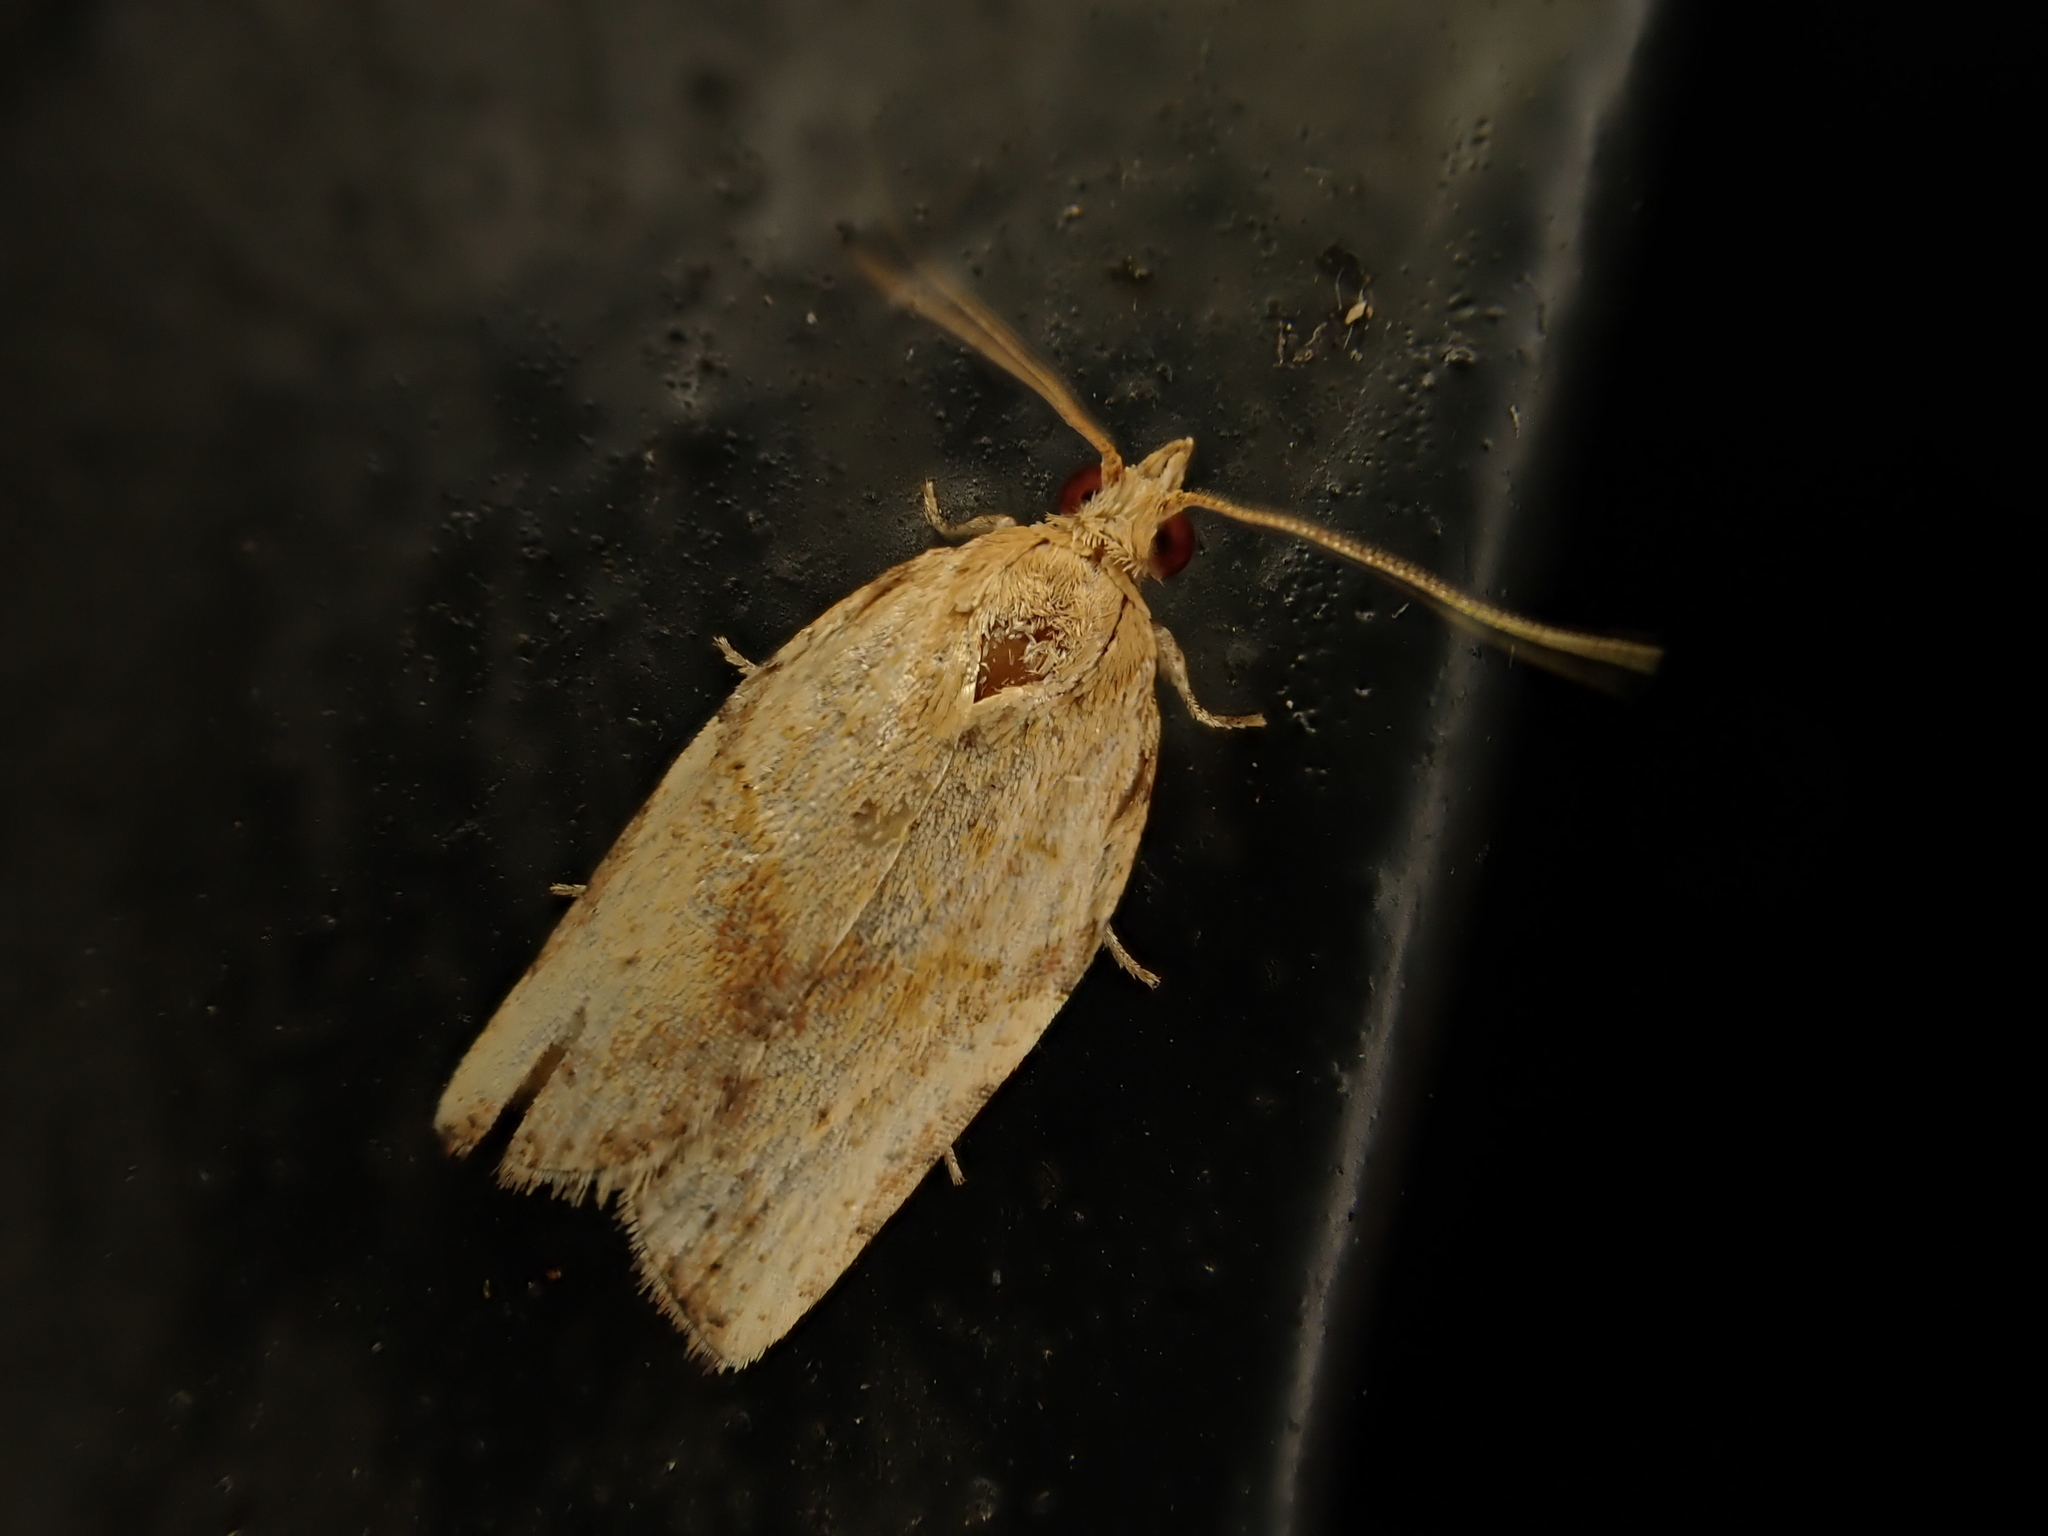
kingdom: Animalia
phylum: Arthropoda
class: Insecta
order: Lepidoptera
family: Tortricidae
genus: Epiphyas
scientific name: Epiphyas postvittana
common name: Light brown apple moth
